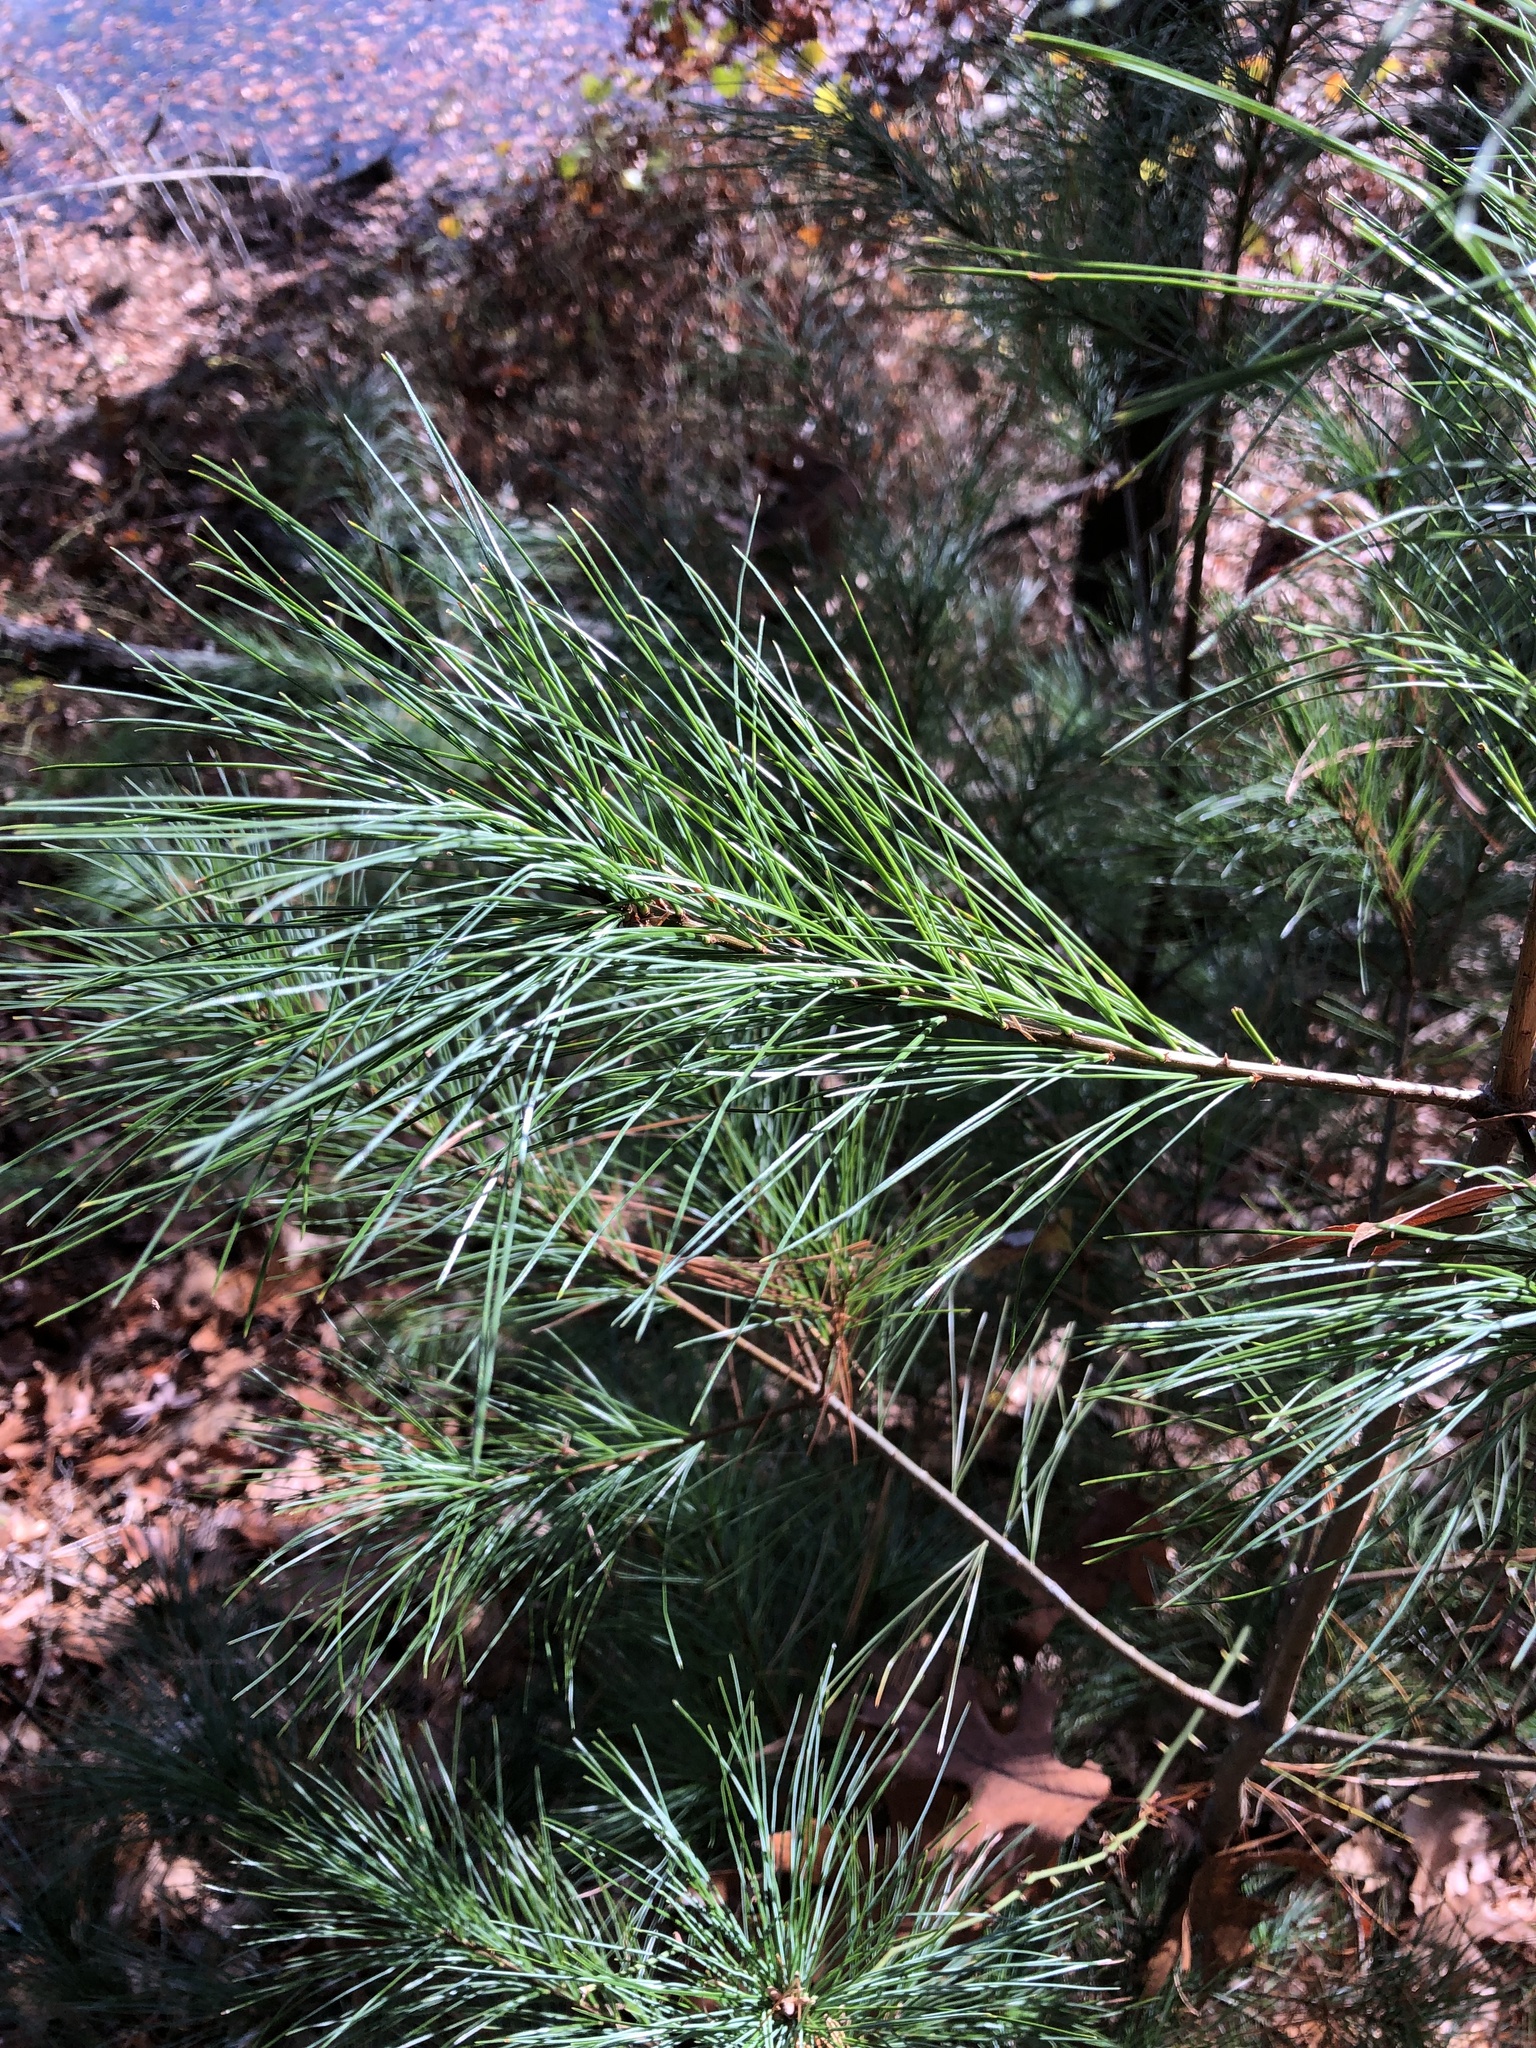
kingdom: Plantae
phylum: Tracheophyta
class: Pinopsida
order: Pinales
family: Pinaceae
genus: Pinus
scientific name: Pinus strobus
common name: Weymouth pine
